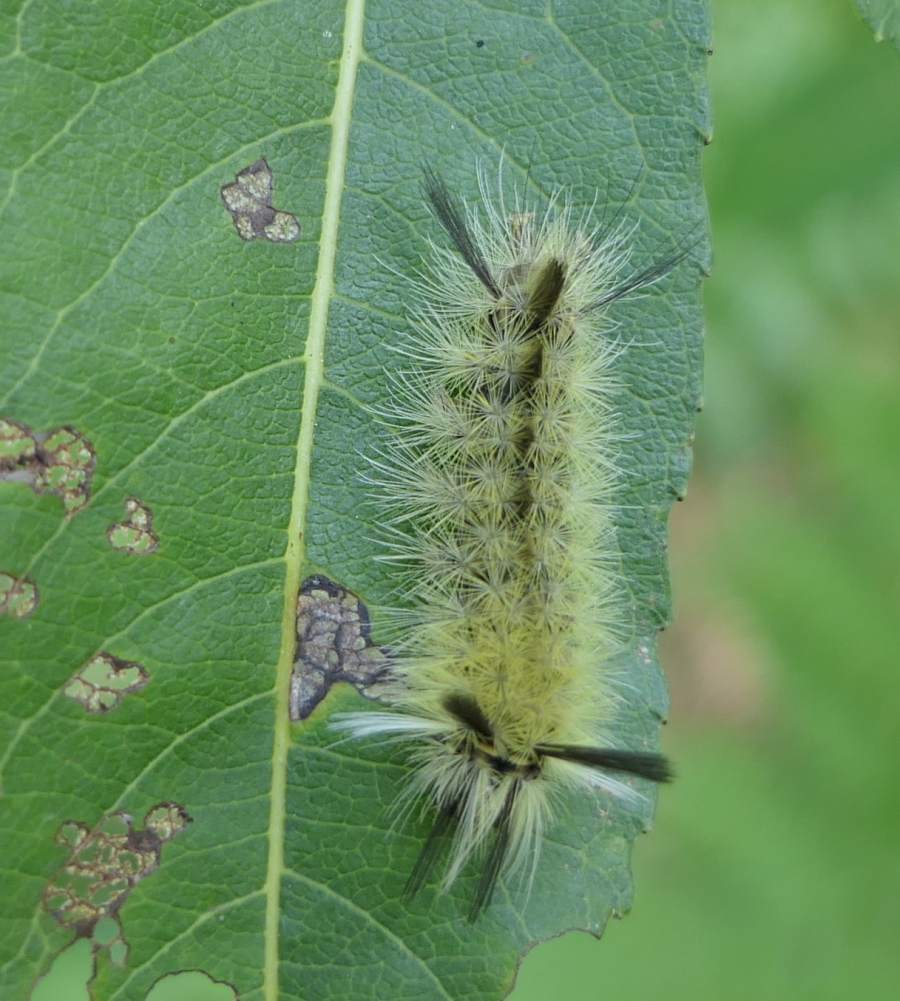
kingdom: Animalia
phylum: Arthropoda
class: Insecta
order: Lepidoptera
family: Erebidae
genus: Halysidota
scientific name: Halysidota tessellaris
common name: Banded tussock moth
